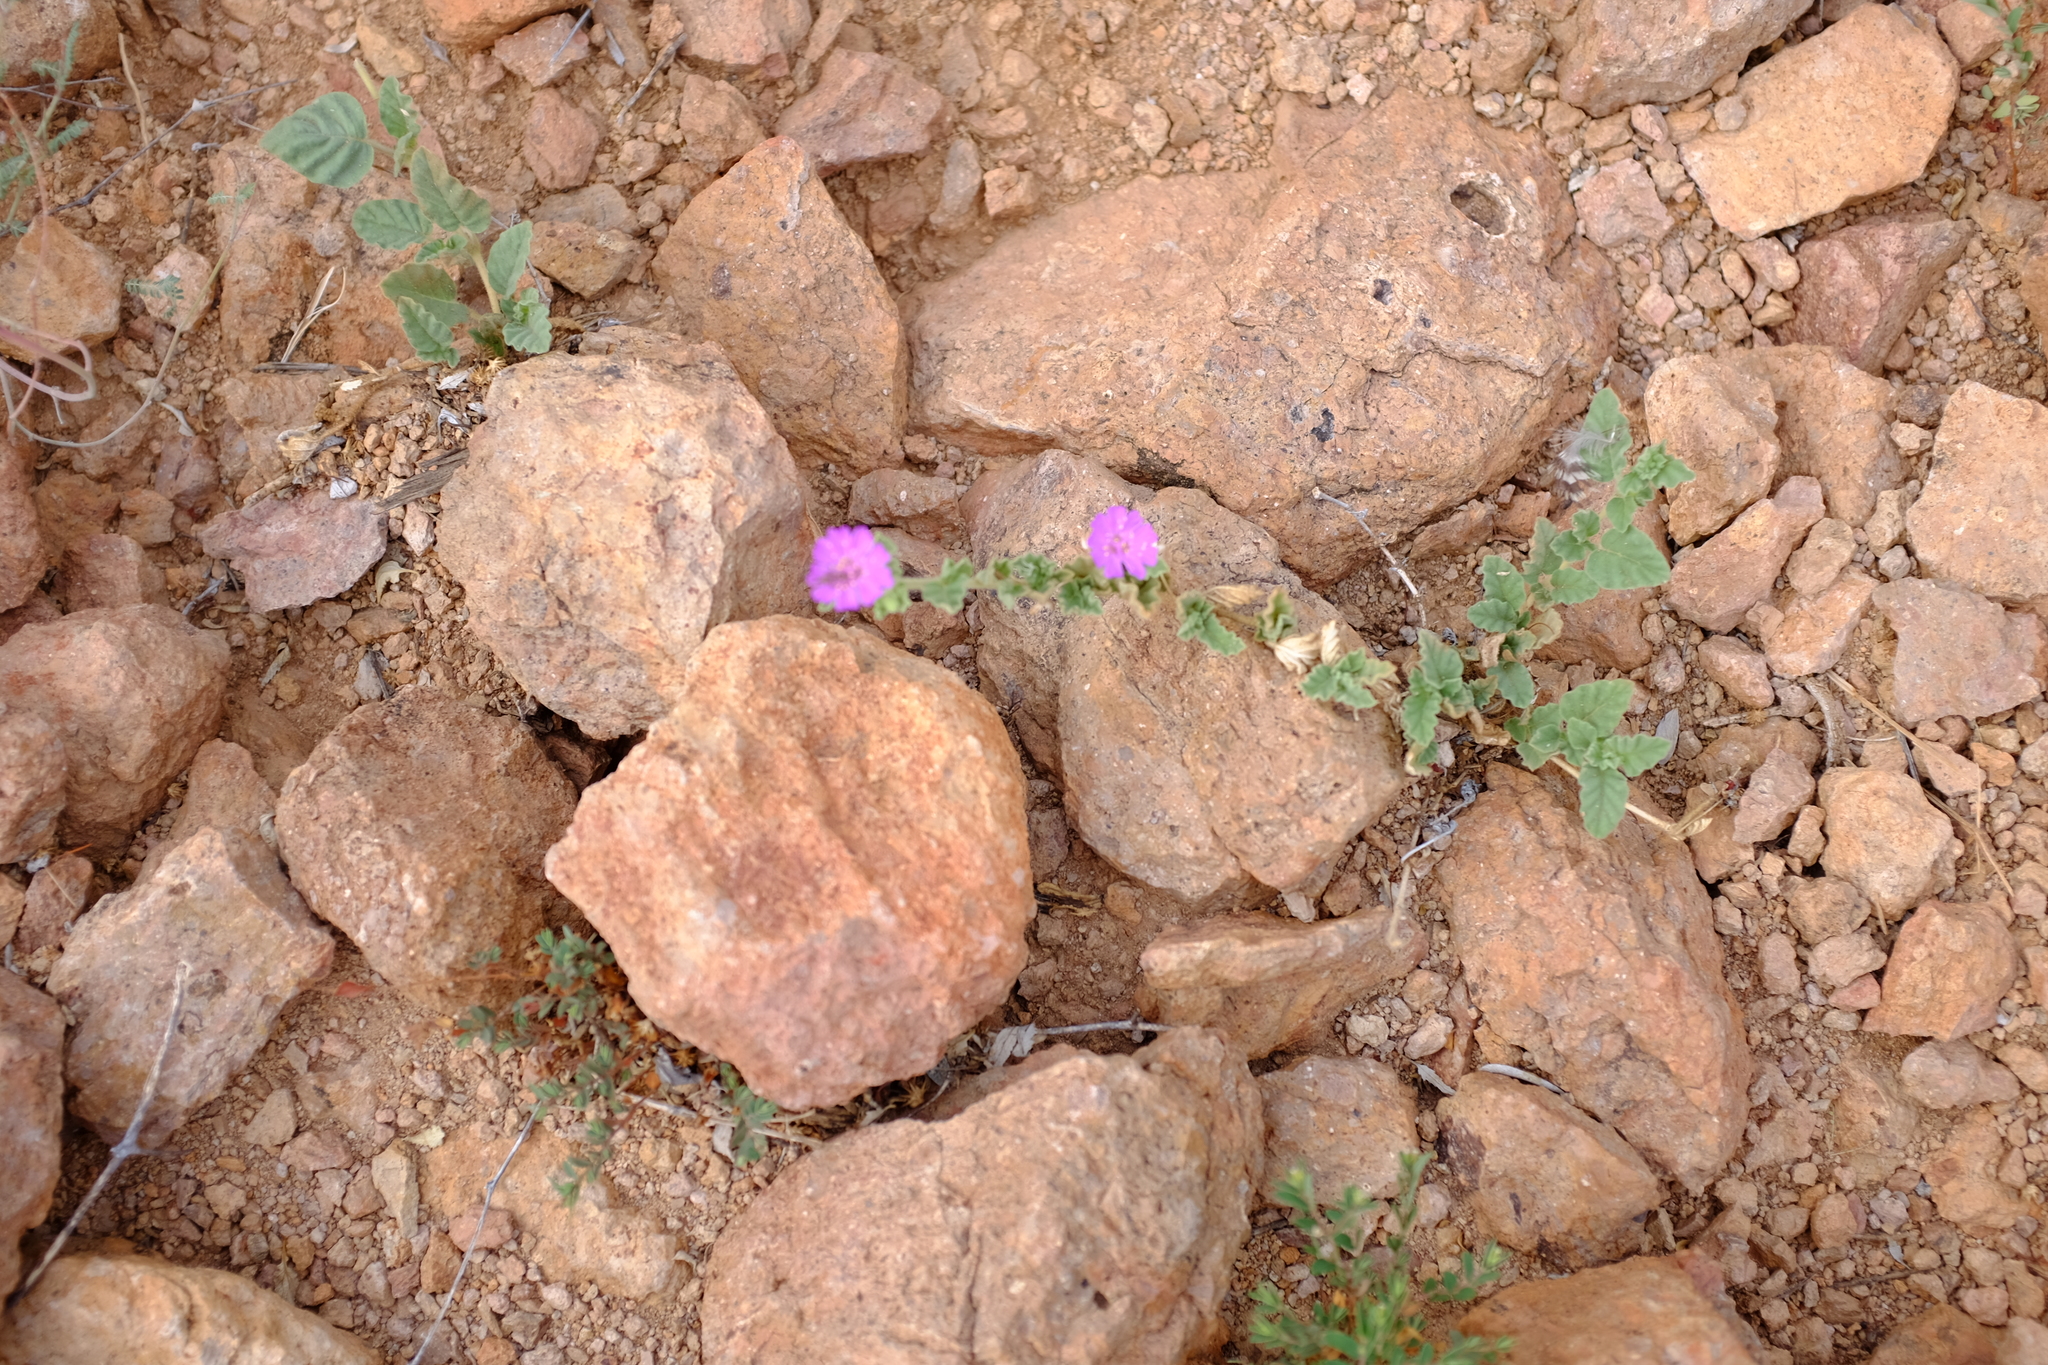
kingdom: Plantae
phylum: Tracheophyta
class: Magnoliopsida
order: Caryophyllales
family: Nyctaginaceae
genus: Allionia
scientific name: Allionia incarnata
